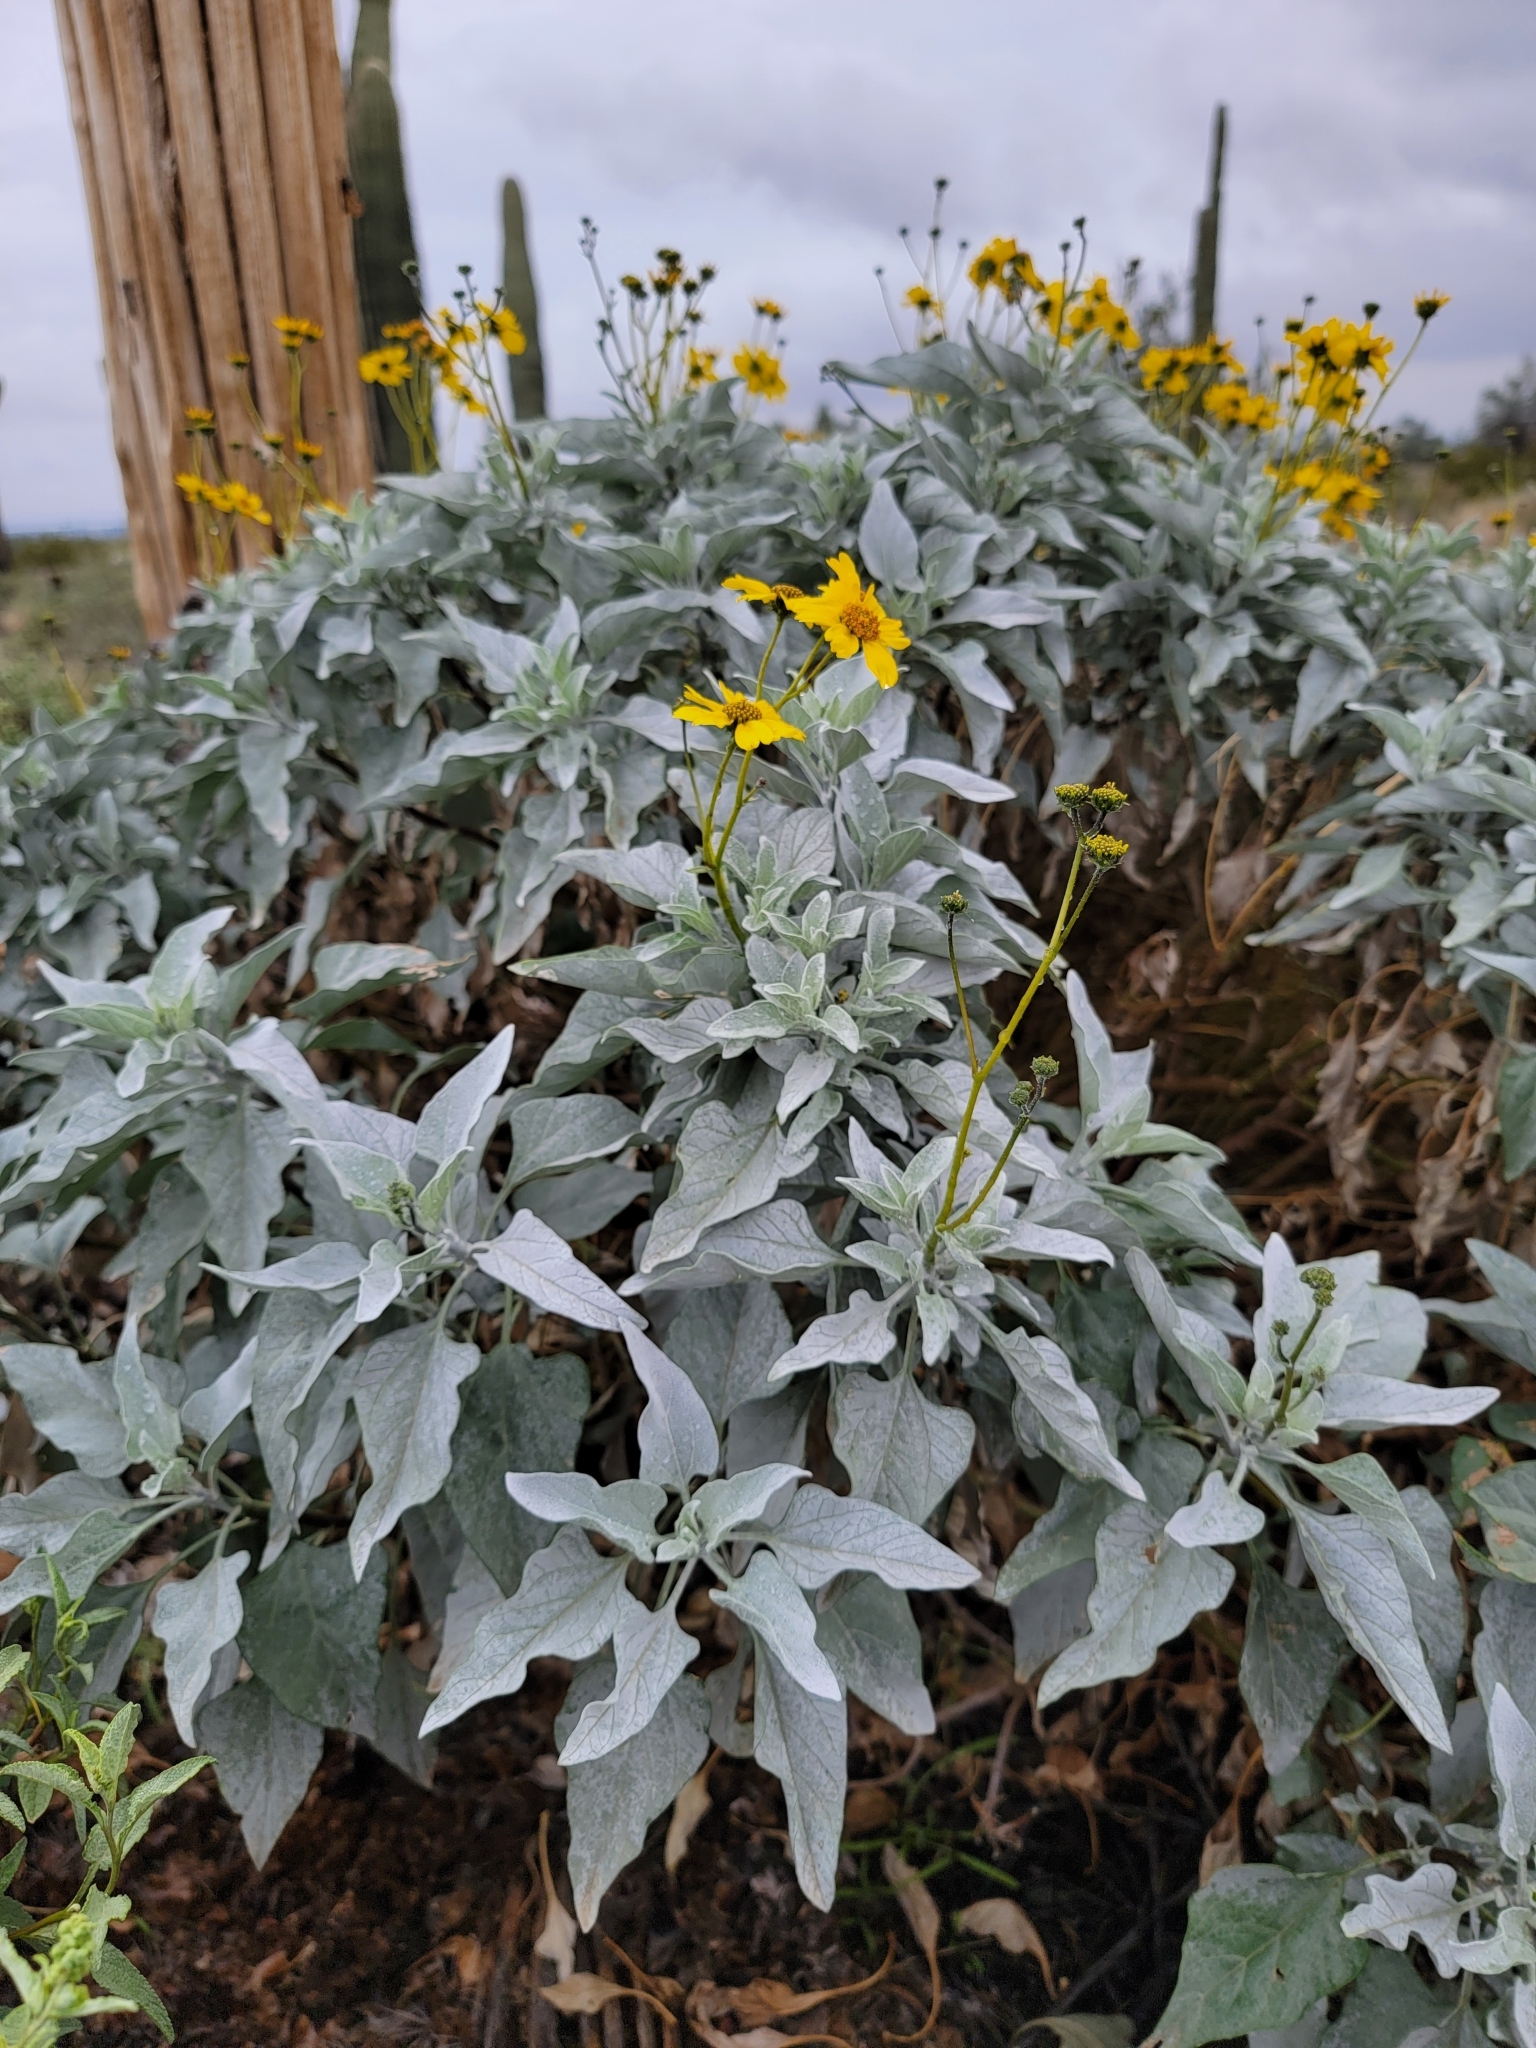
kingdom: Plantae
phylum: Tracheophyta
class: Magnoliopsida
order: Asterales
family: Asteraceae
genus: Encelia
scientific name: Encelia farinosa
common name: Brittlebush
